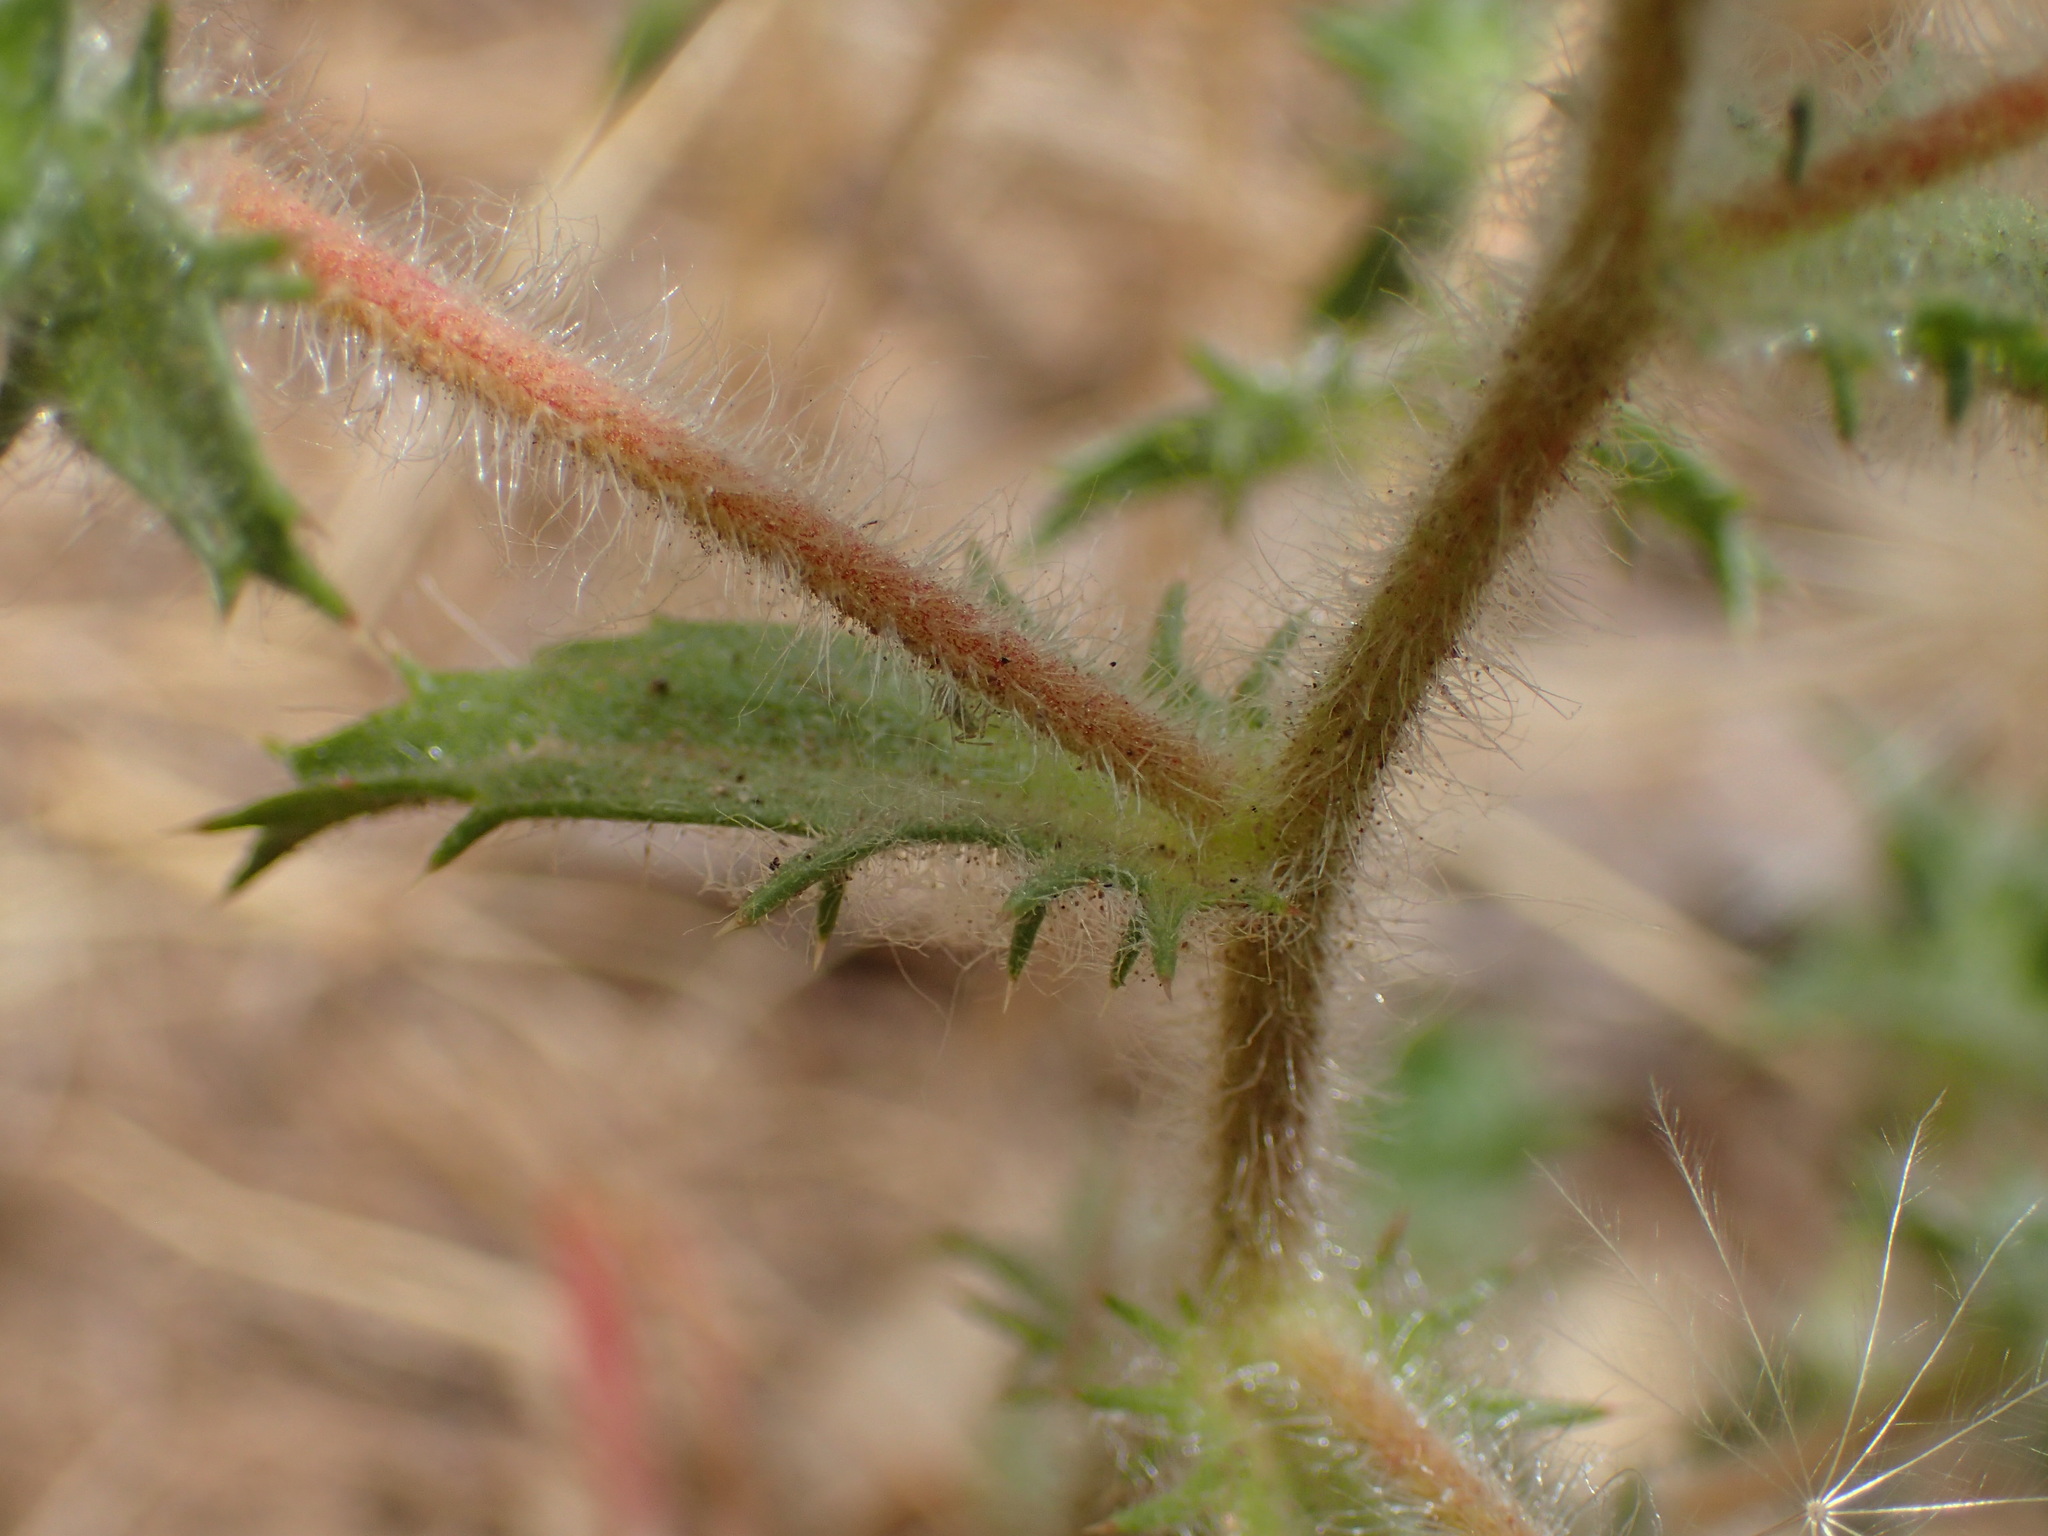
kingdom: Plantae
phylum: Tracheophyta
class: Magnoliopsida
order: Ericales
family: Polemoniaceae
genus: Navarretia
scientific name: Navarretia atractyloides
